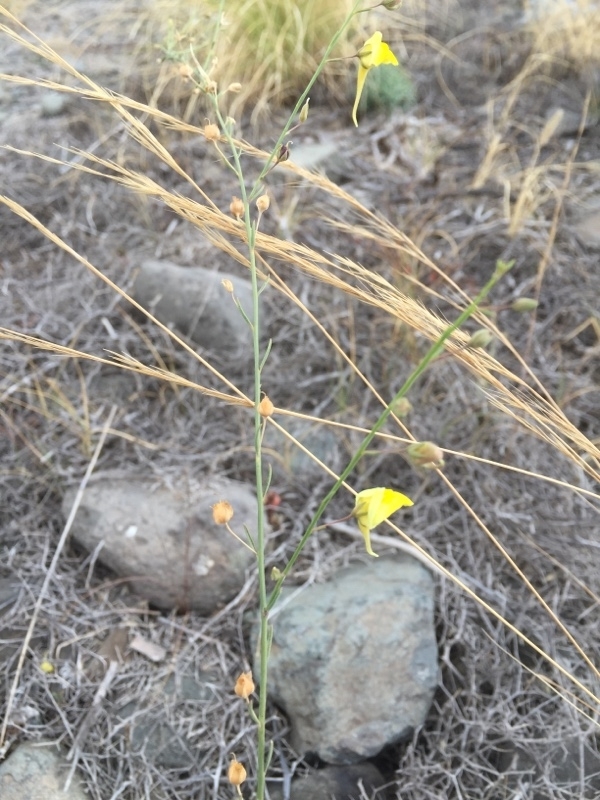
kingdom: Plantae
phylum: Tracheophyta
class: Magnoliopsida
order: Lamiales
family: Plantaginaceae
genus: Nanorrhinum
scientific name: Nanorrhinum scoparium
